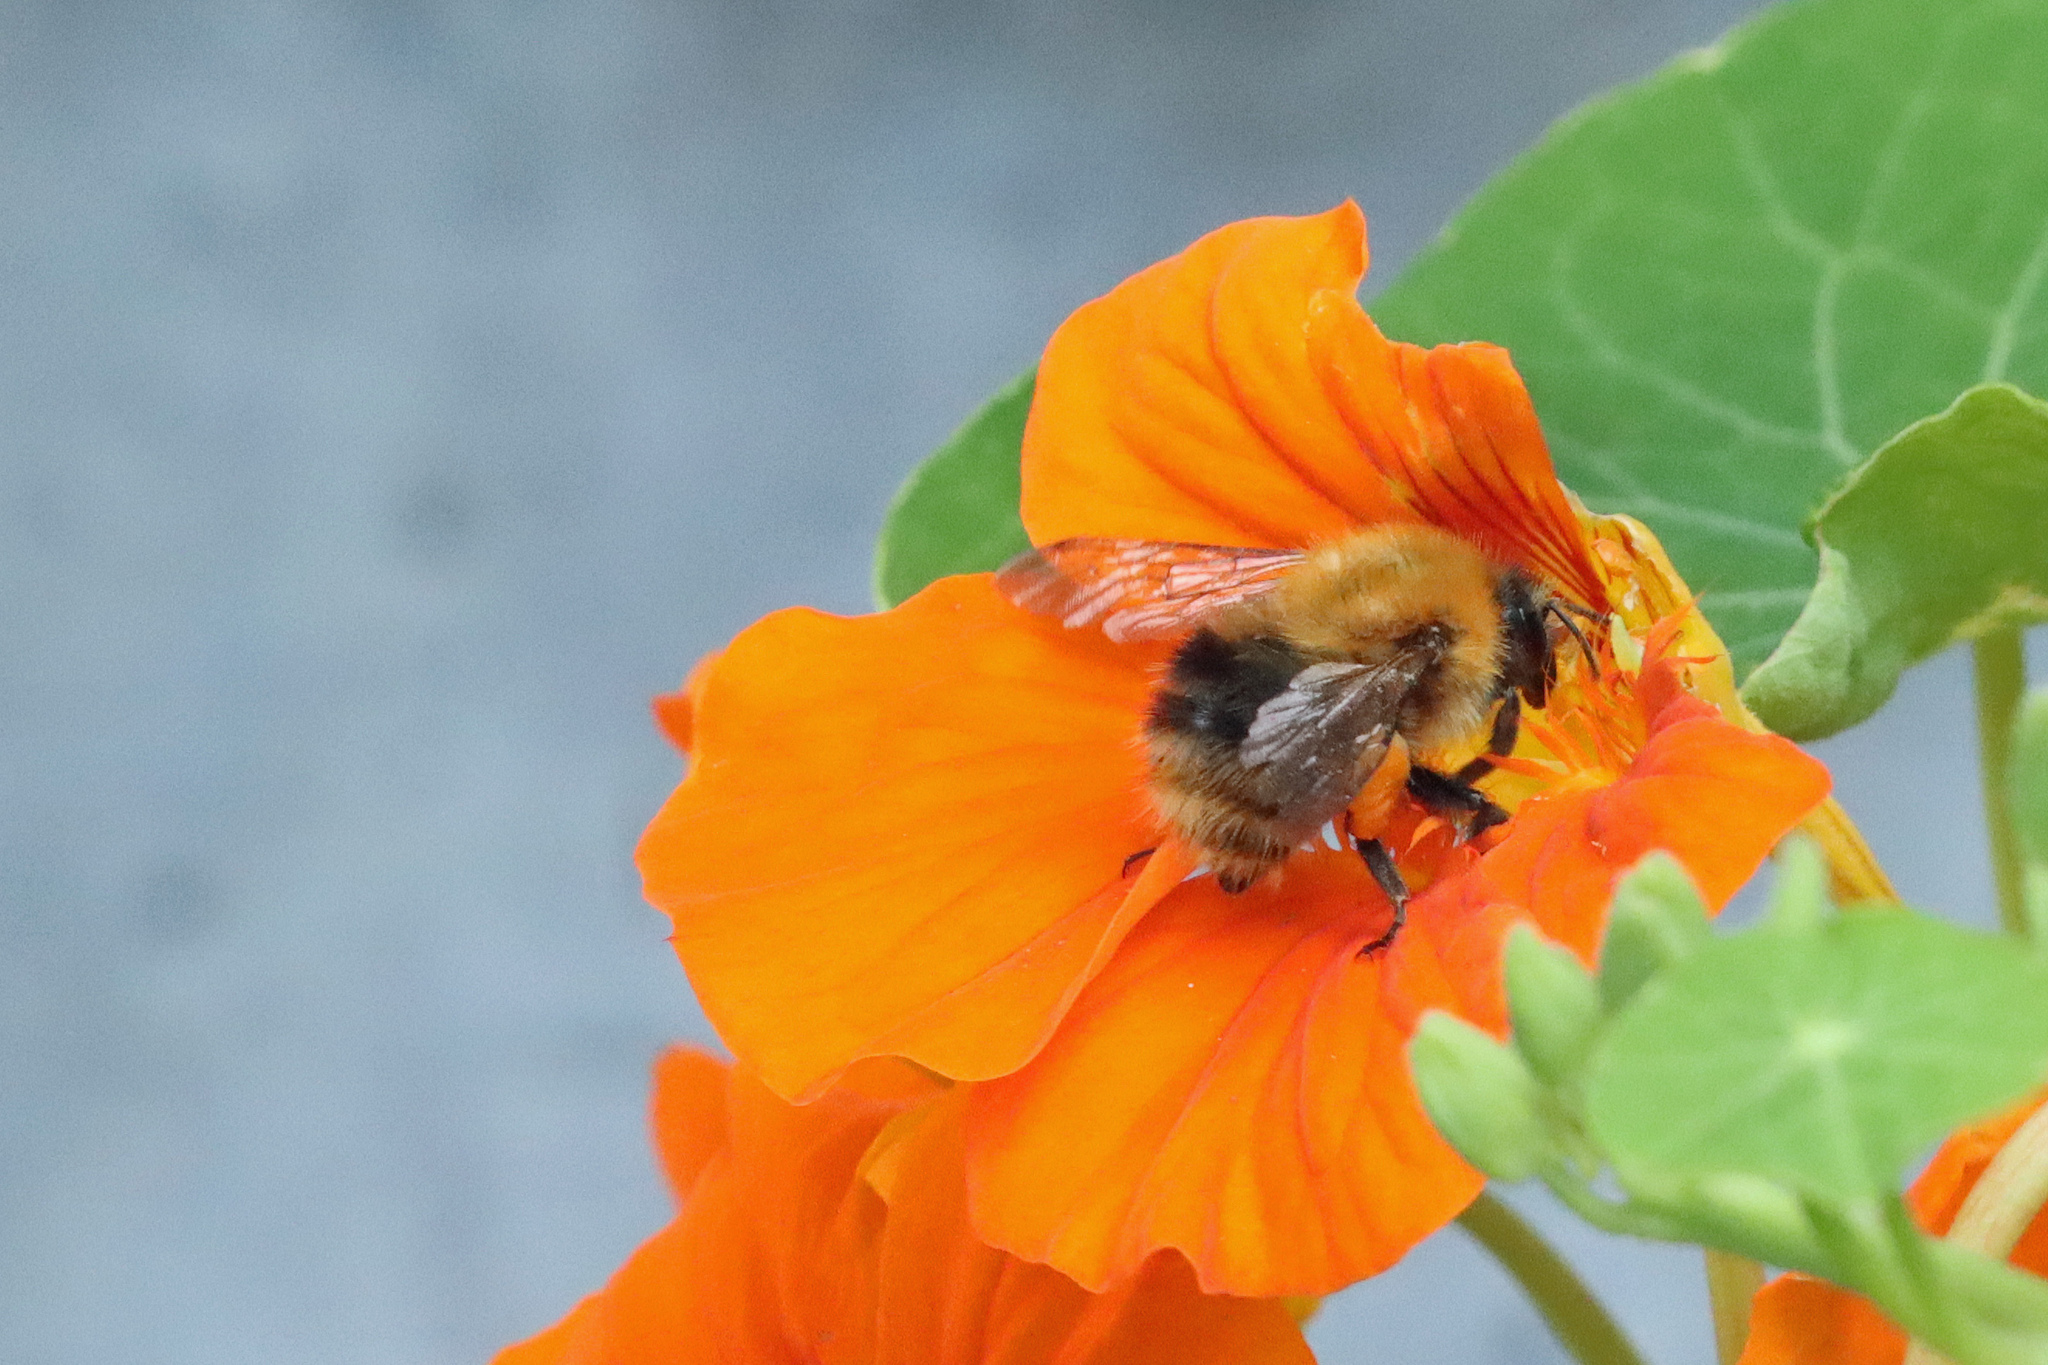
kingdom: Animalia
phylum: Arthropoda
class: Insecta
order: Hymenoptera
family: Apidae
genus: Bombus
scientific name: Bombus pascuorum
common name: Common carder bee
